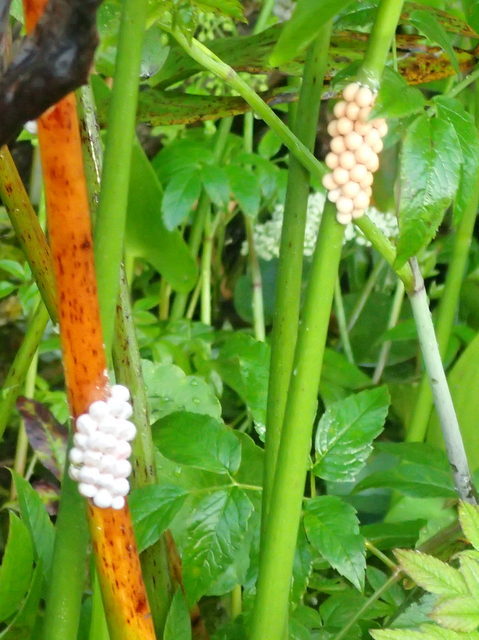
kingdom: Animalia
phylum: Mollusca
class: Gastropoda
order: Architaenioglossa
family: Ampullariidae
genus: Pomacea
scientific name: Pomacea paludosa
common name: Florida applesnail
